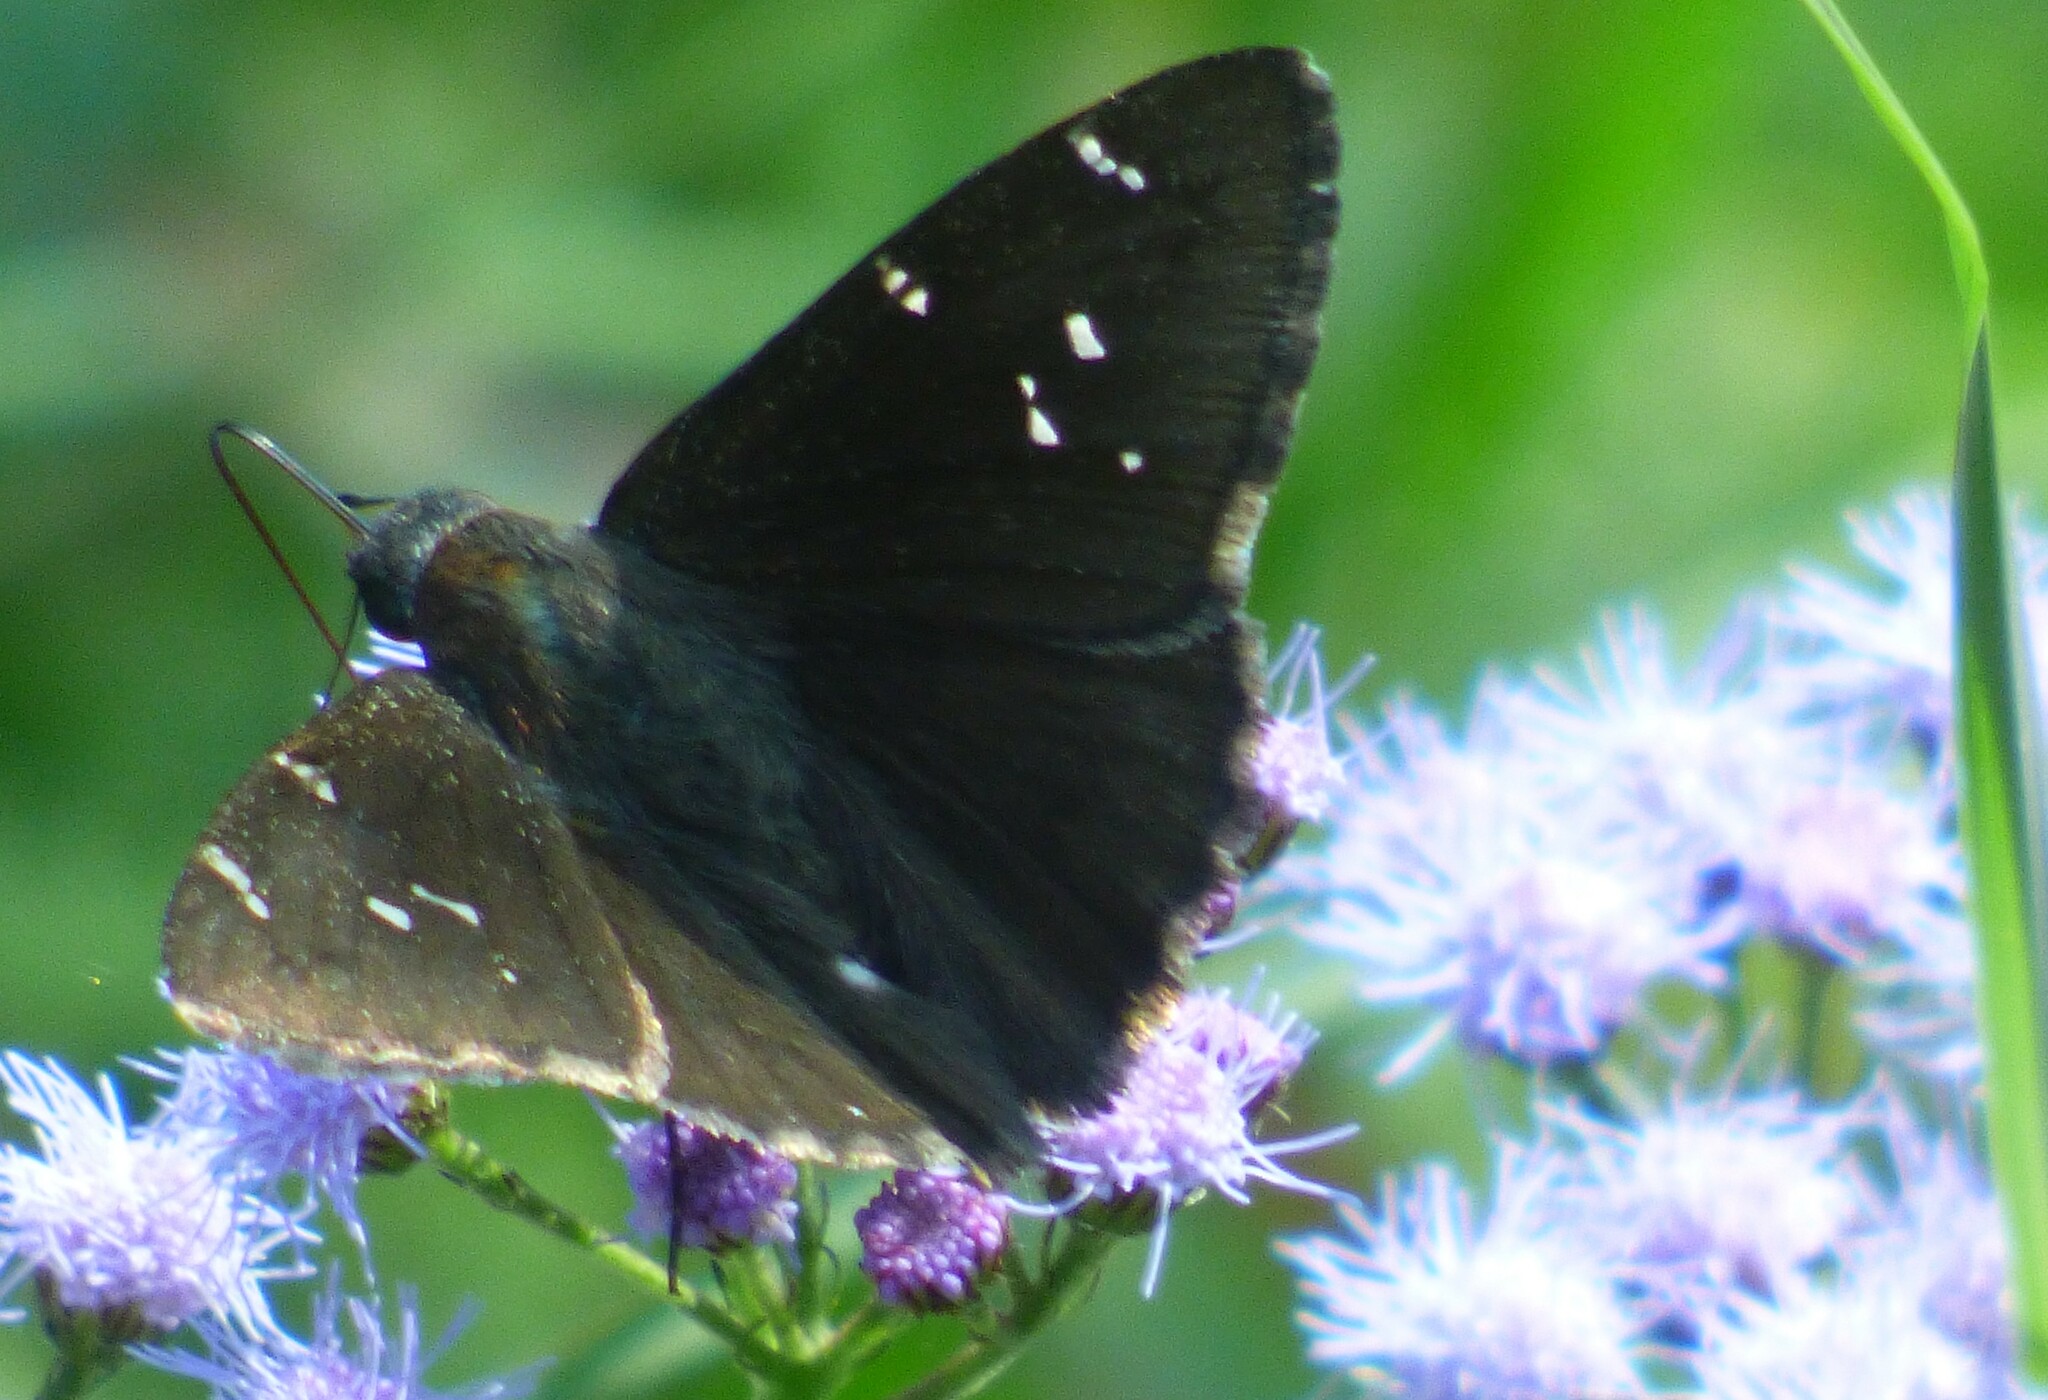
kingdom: Animalia
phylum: Arthropoda
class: Insecta
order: Lepidoptera
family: Hesperiidae
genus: Thorybes
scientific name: Thorybes pylades
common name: Northern cloudywing
